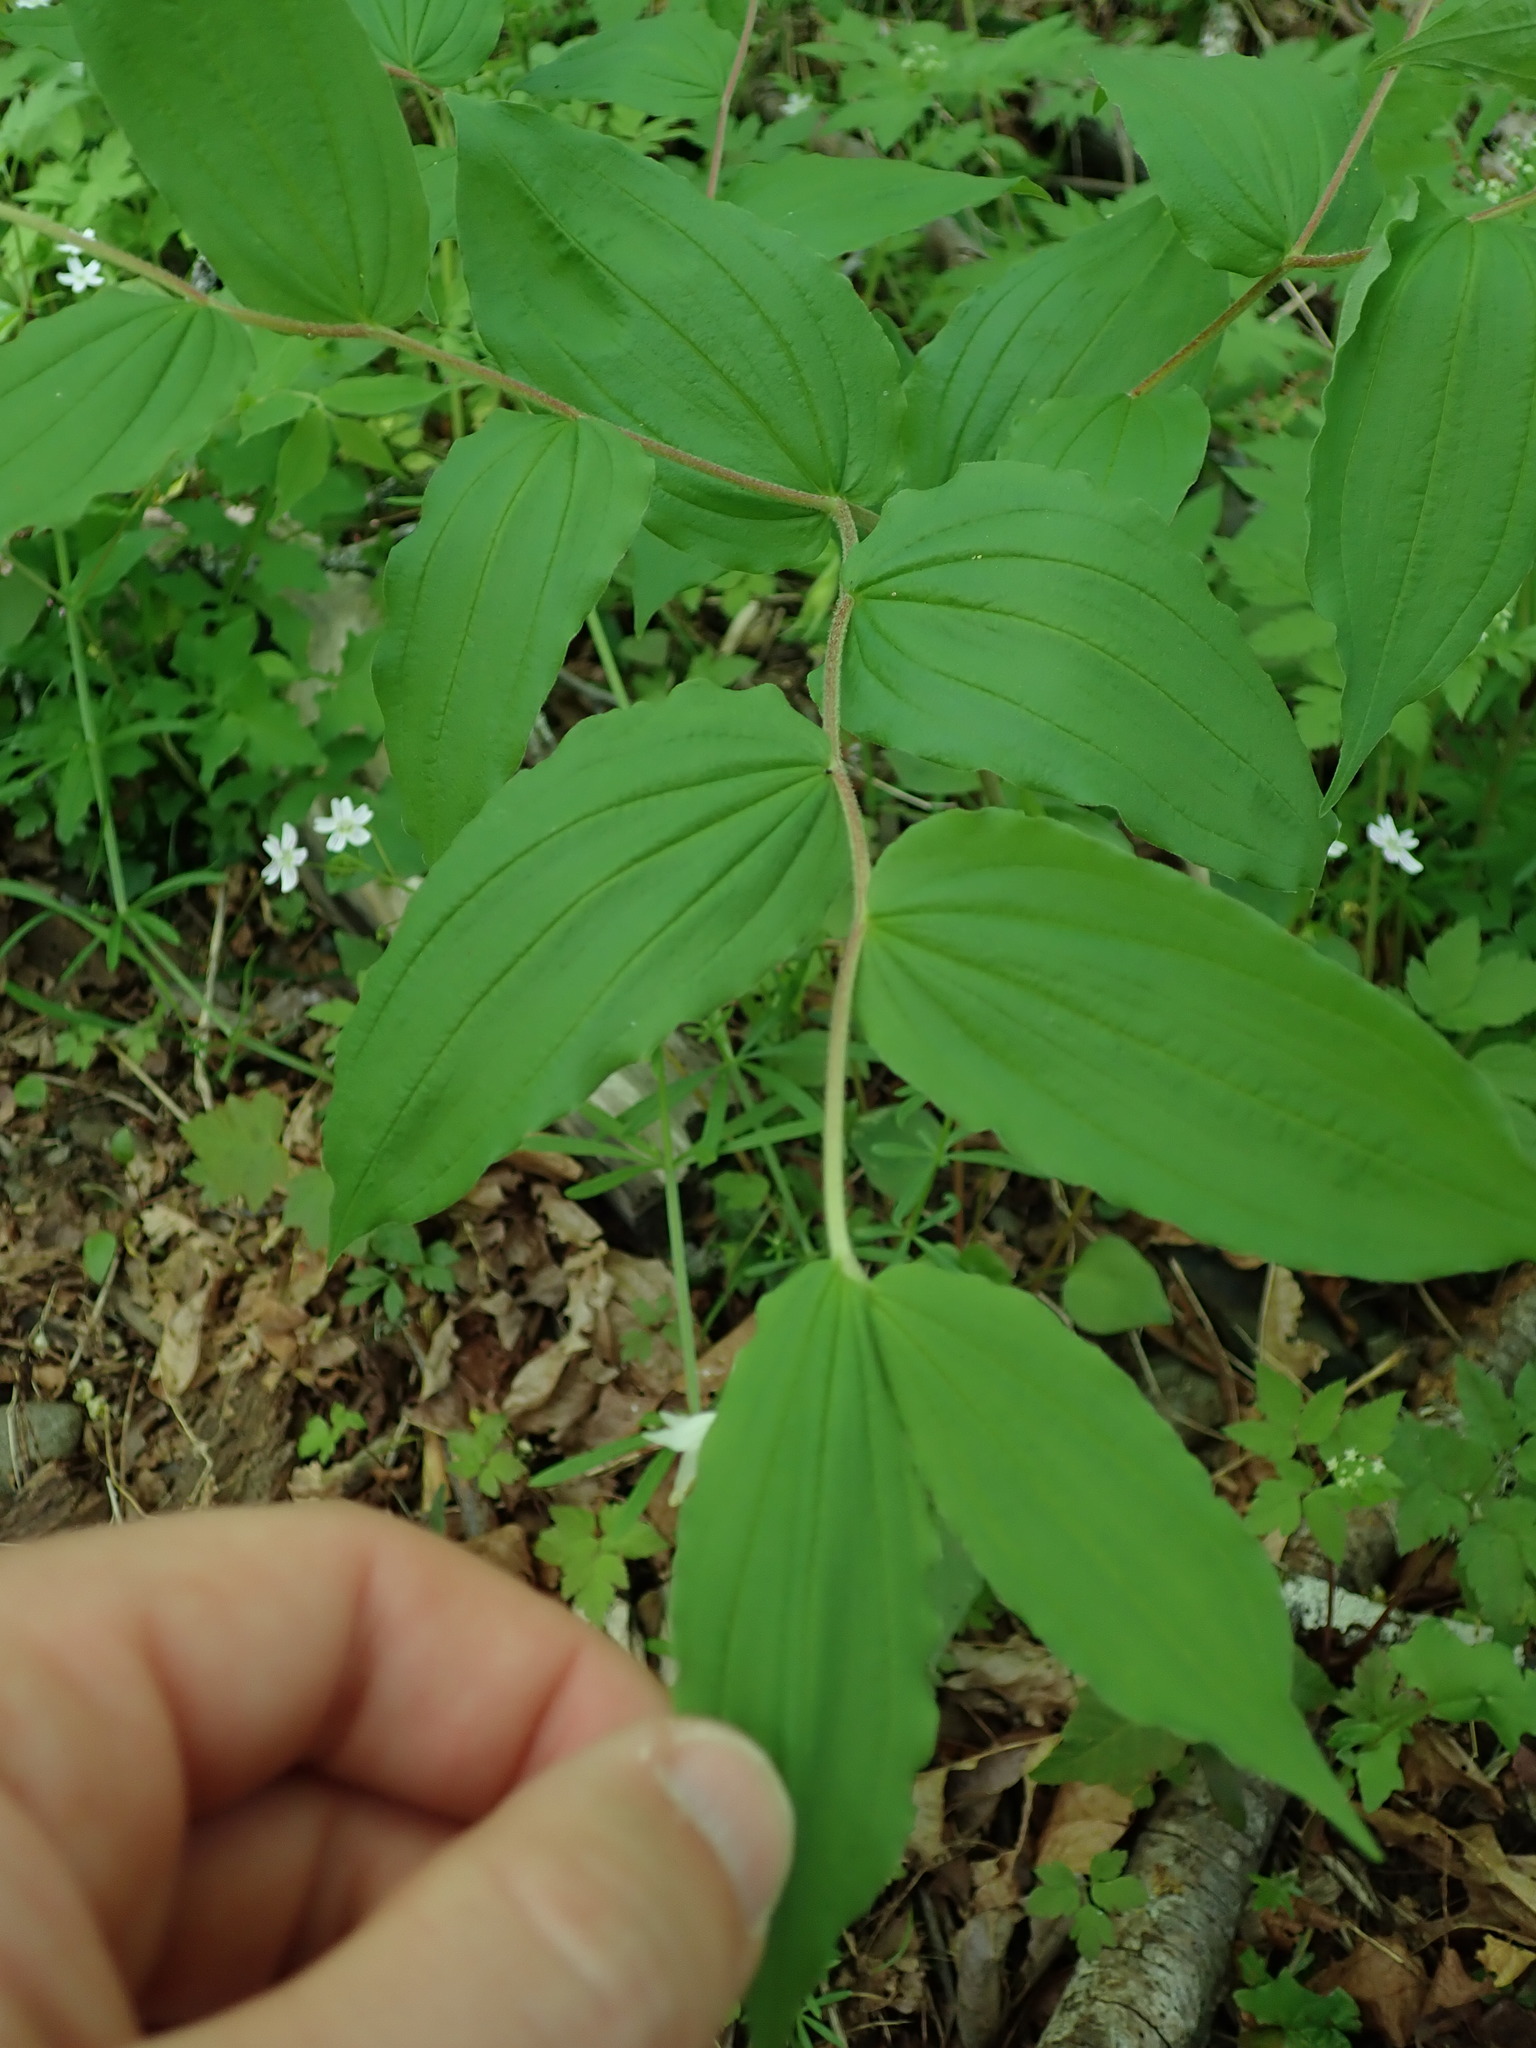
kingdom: Plantae
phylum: Tracheophyta
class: Liliopsida
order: Liliales
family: Liliaceae
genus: Prosartes
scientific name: Prosartes hookeri
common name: Fairy-bells
